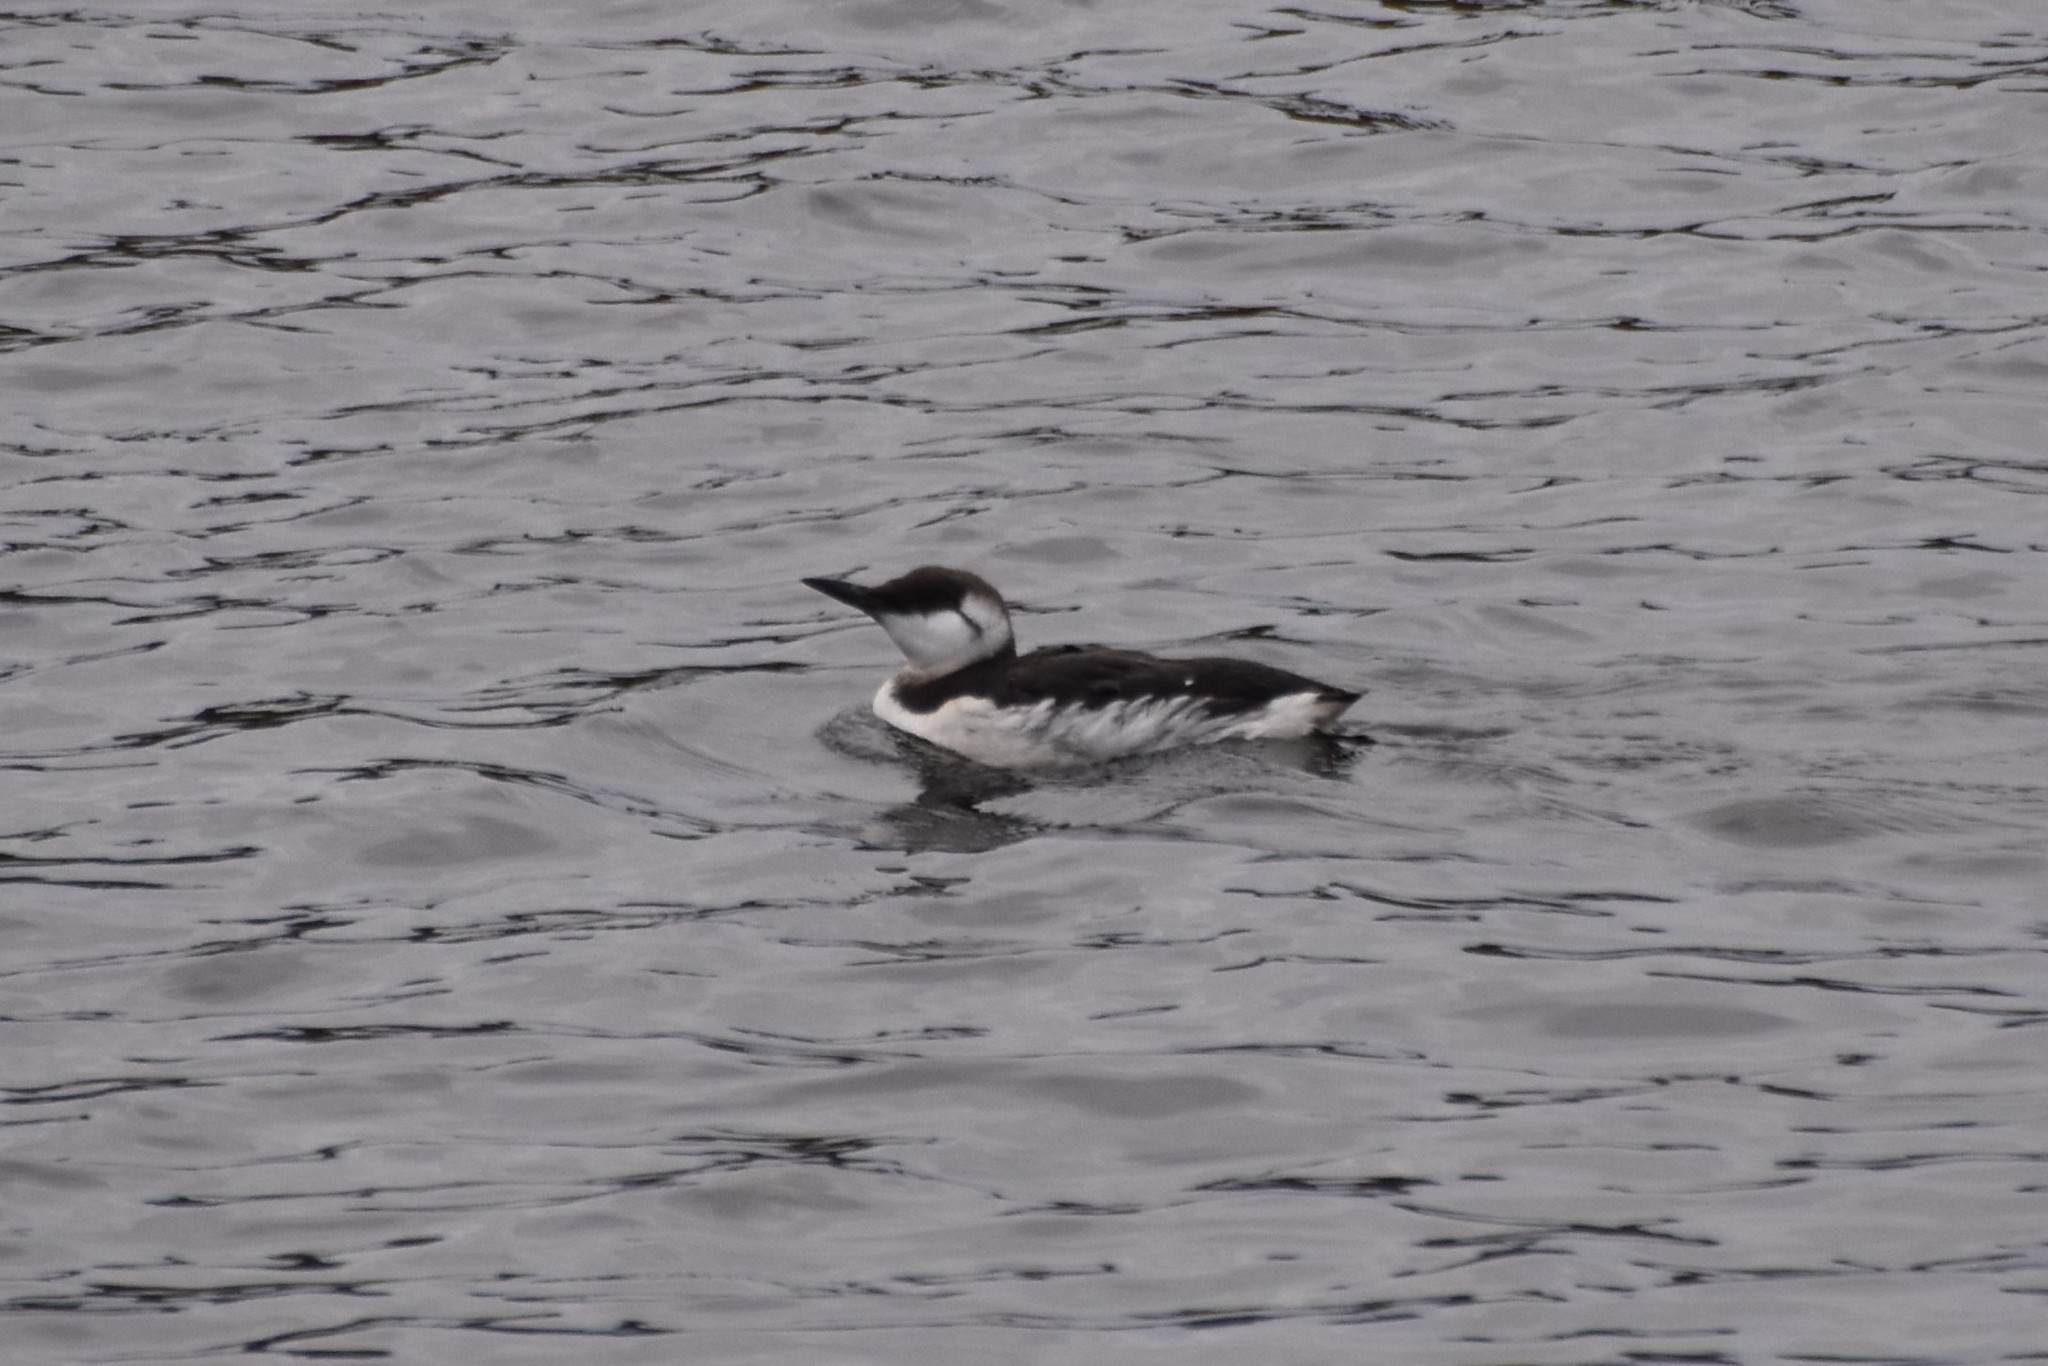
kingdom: Animalia
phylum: Chordata
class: Aves
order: Charadriiformes
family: Alcidae
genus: Uria
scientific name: Uria aalge
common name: Common murre
